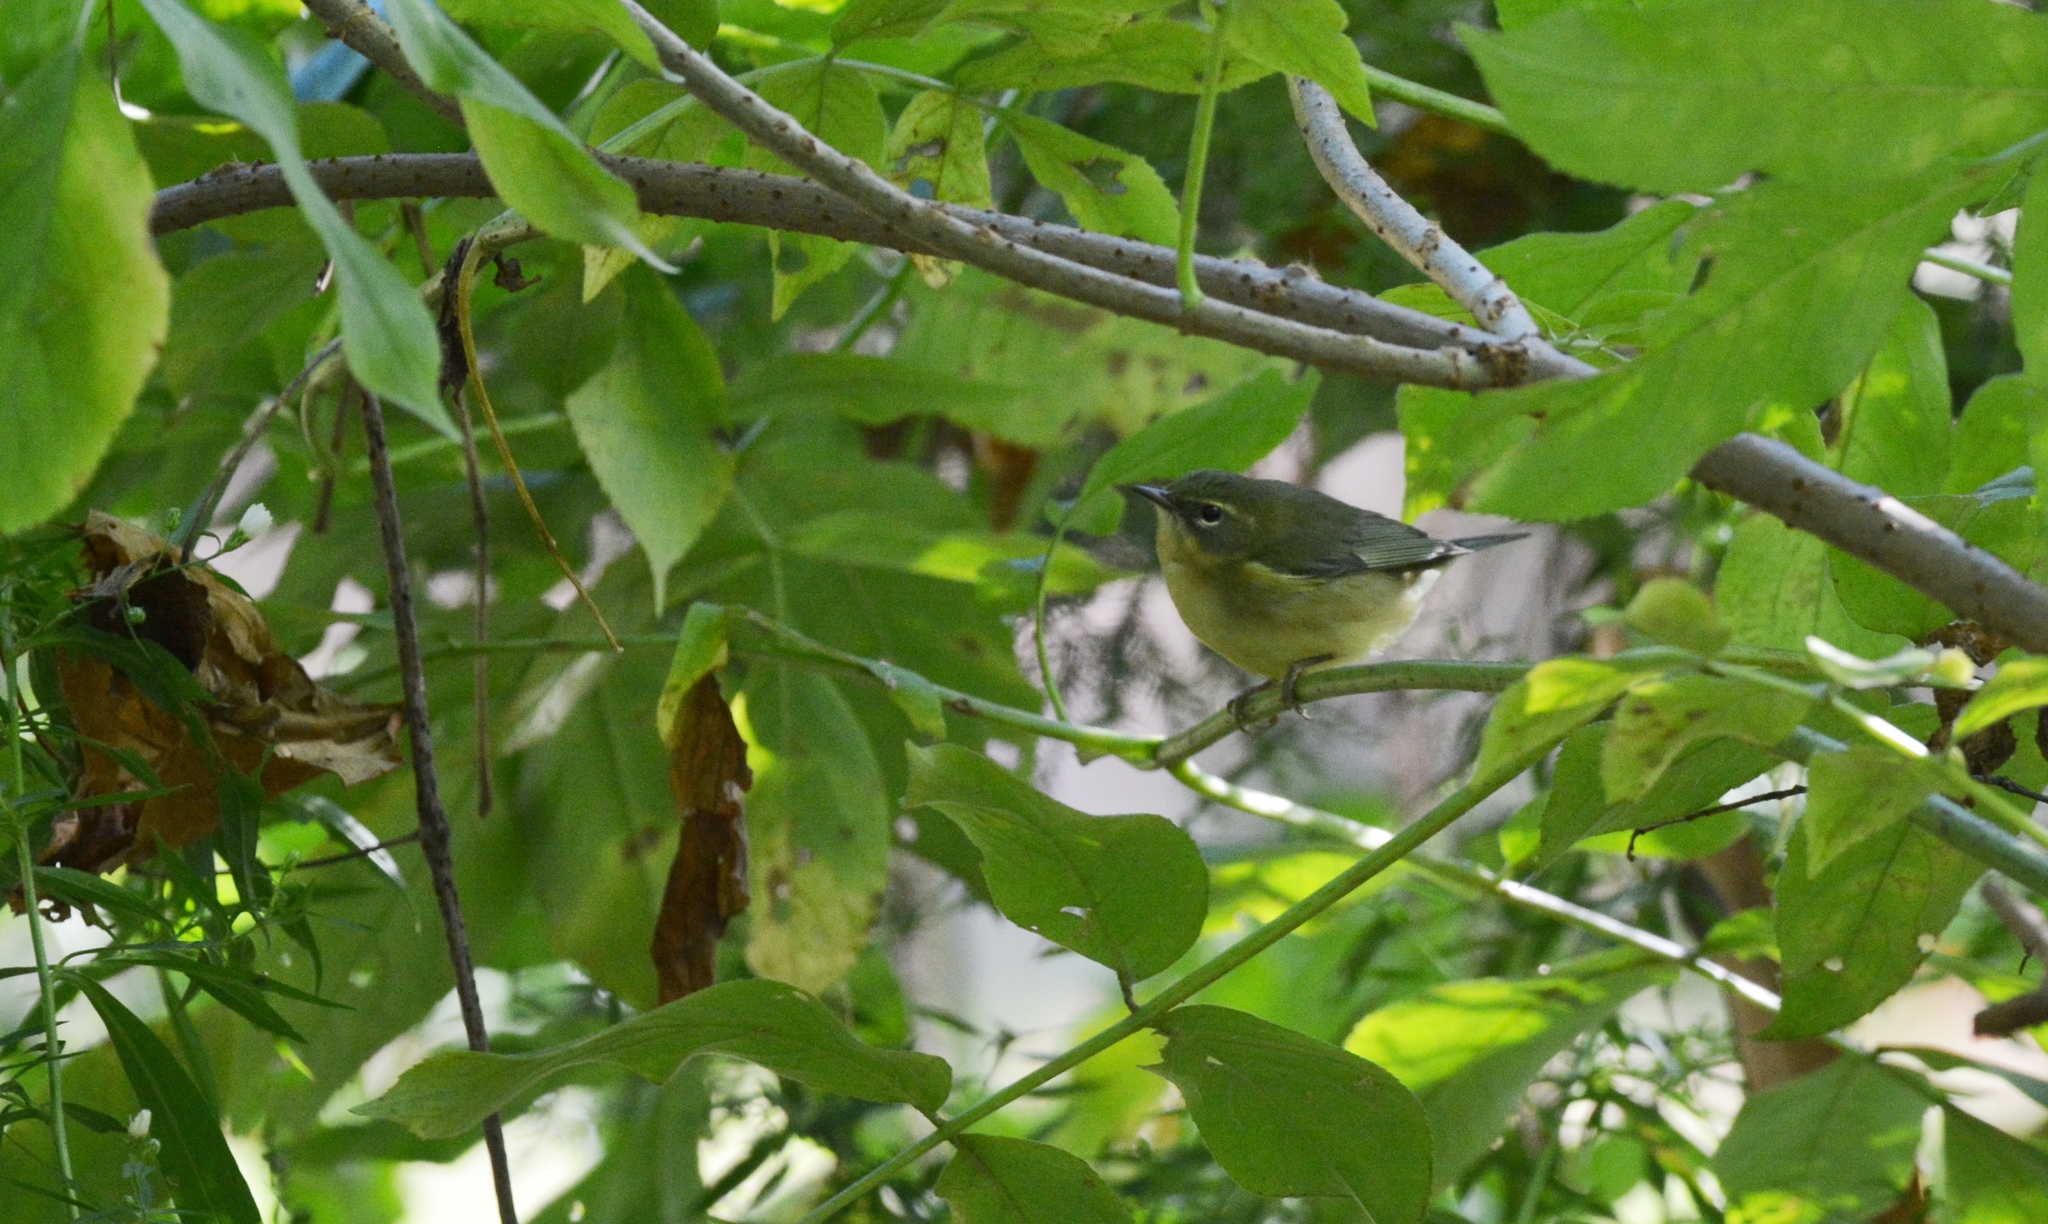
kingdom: Animalia
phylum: Chordata
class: Aves
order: Passeriformes
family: Parulidae
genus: Setophaga
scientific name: Setophaga caerulescens
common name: Black-throated blue warbler
